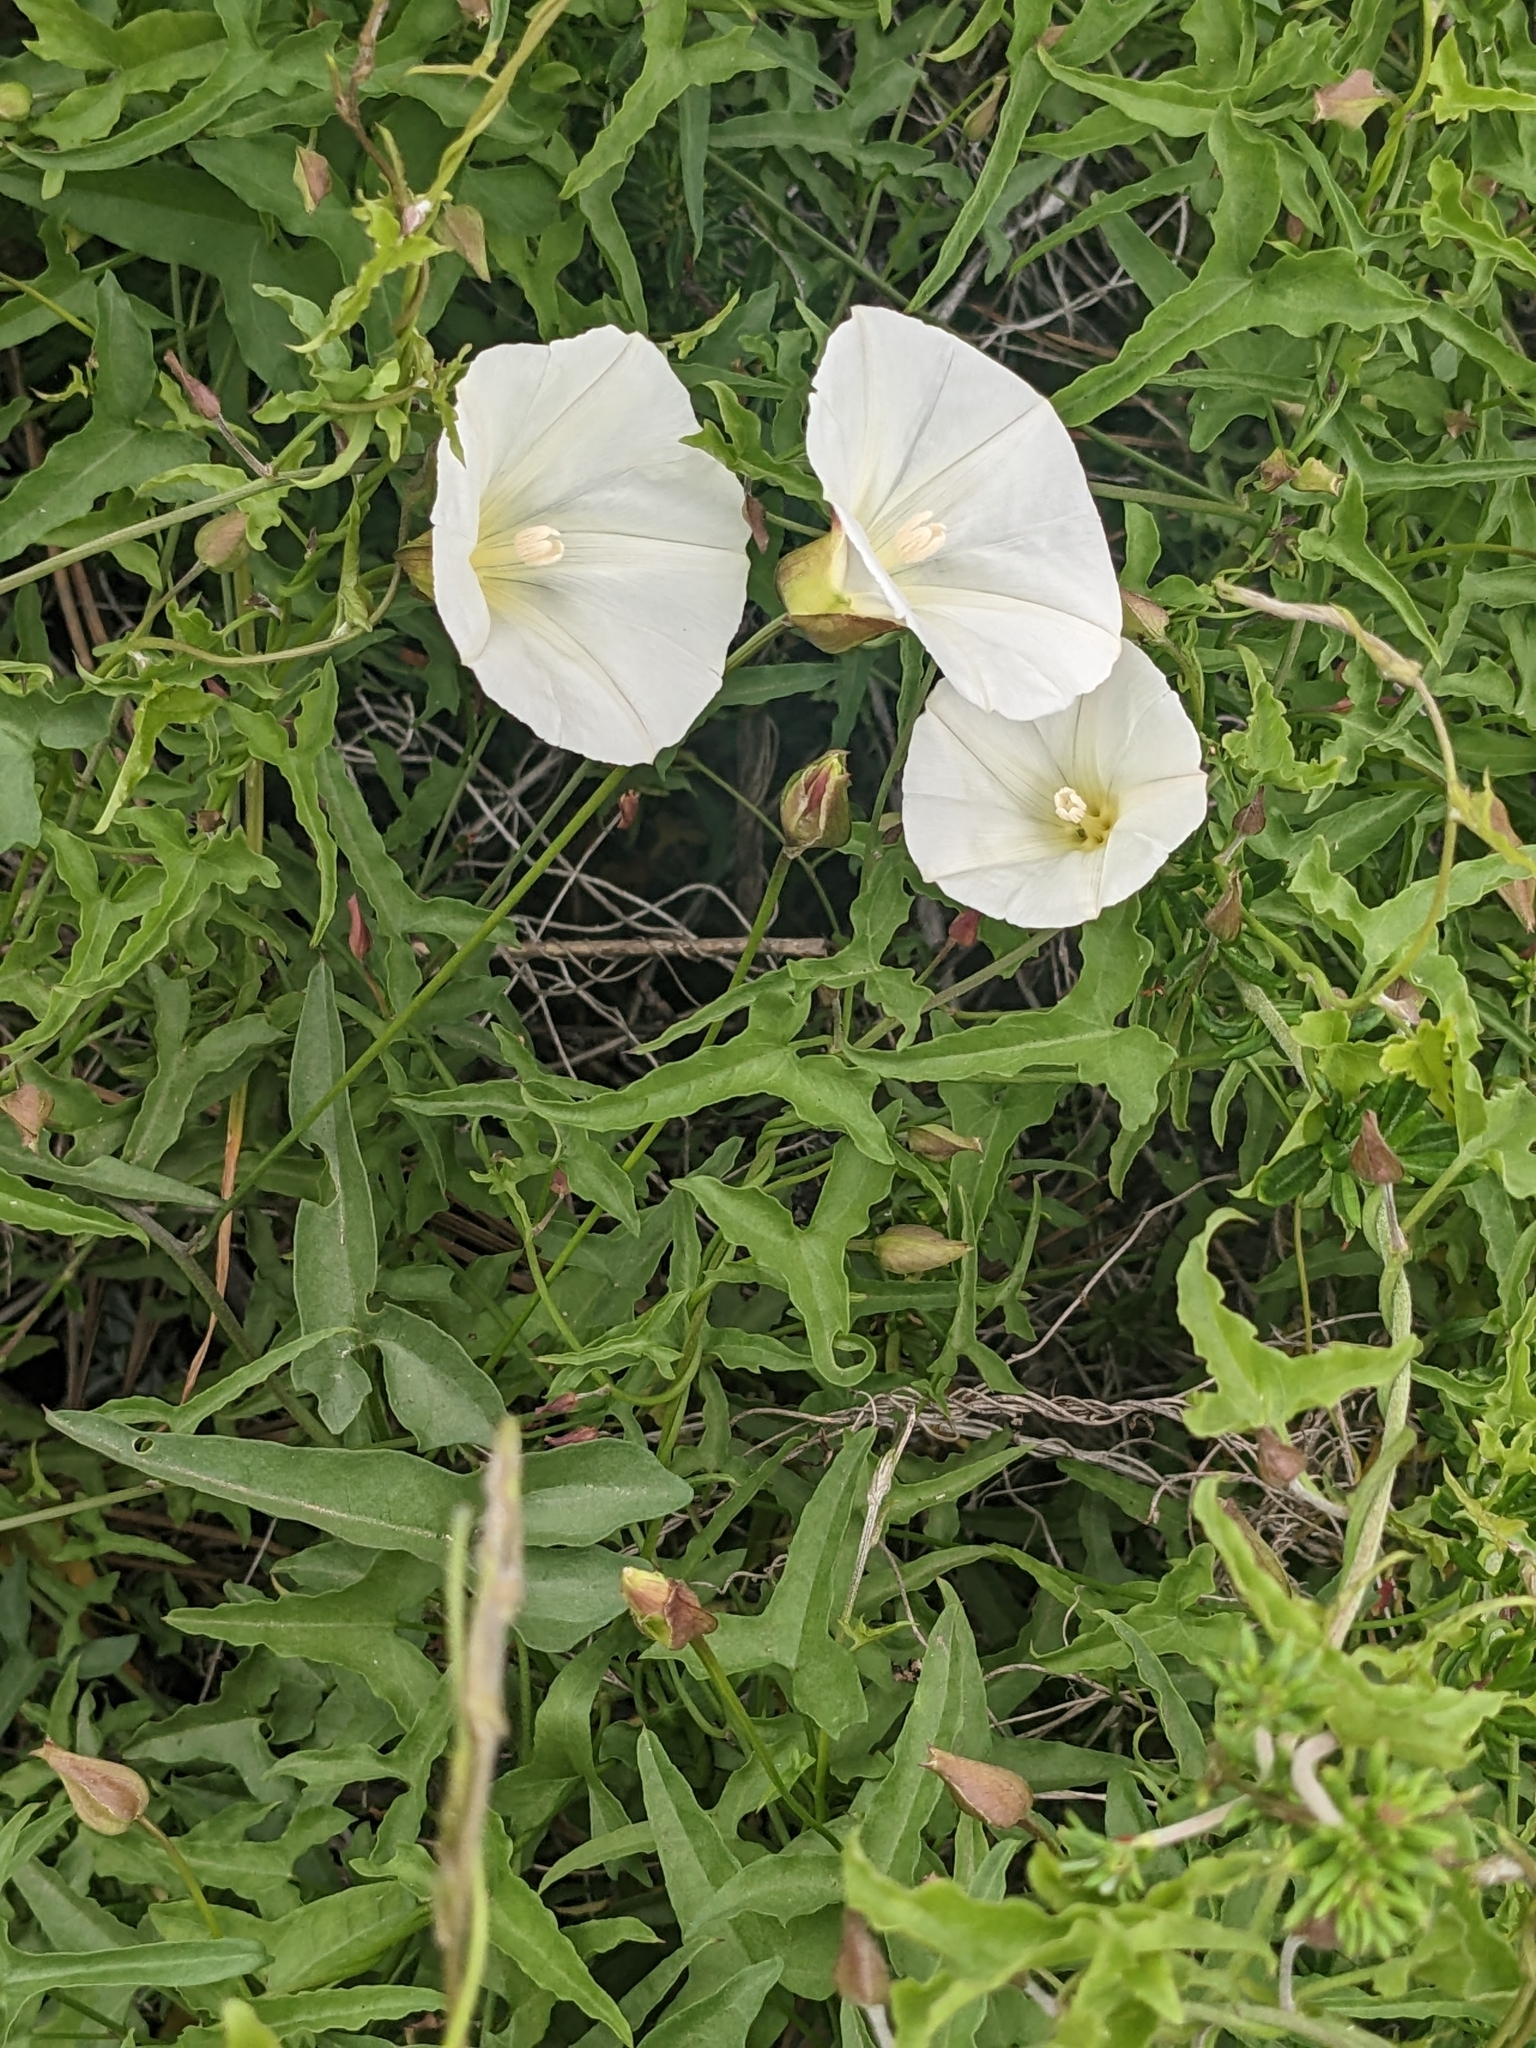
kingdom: Plantae
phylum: Tracheophyta
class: Magnoliopsida
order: Solanales
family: Convolvulaceae
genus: Calystegia
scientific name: Calystegia macrostegia
